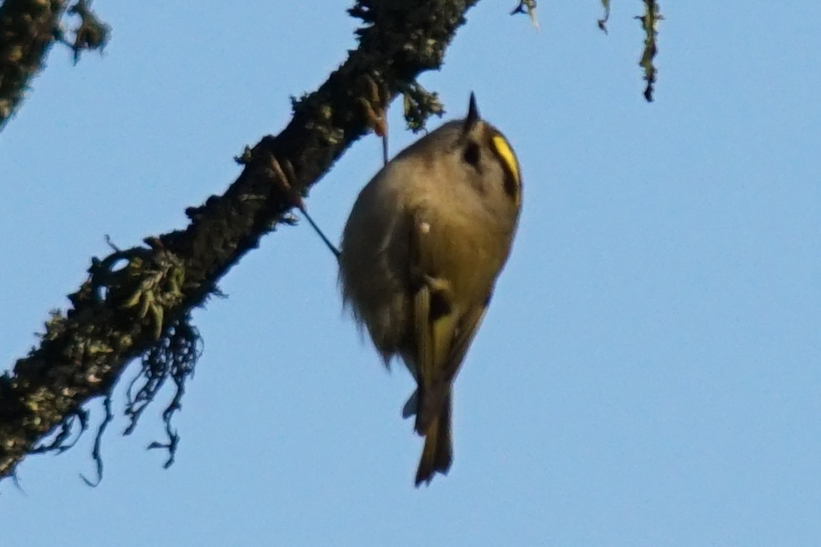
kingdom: Animalia
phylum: Chordata
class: Aves
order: Passeriformes
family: Regulidae
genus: Regulus
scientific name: Regulus regulus
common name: Goldcrest
